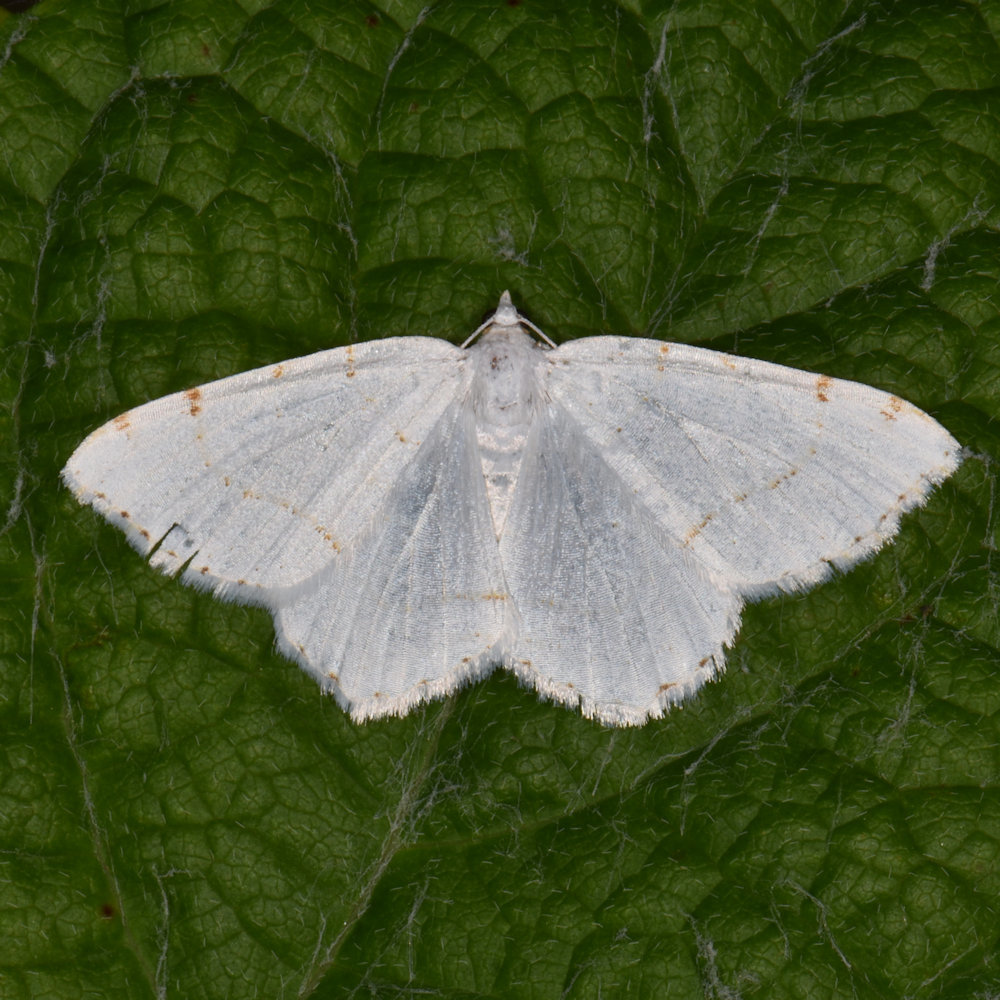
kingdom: Animalia
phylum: Arthropoda
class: Insecta
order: Lepidoptera
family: Geometridae
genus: Macaria
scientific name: Macaria pustularia
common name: Lesser maple spanworm moth
